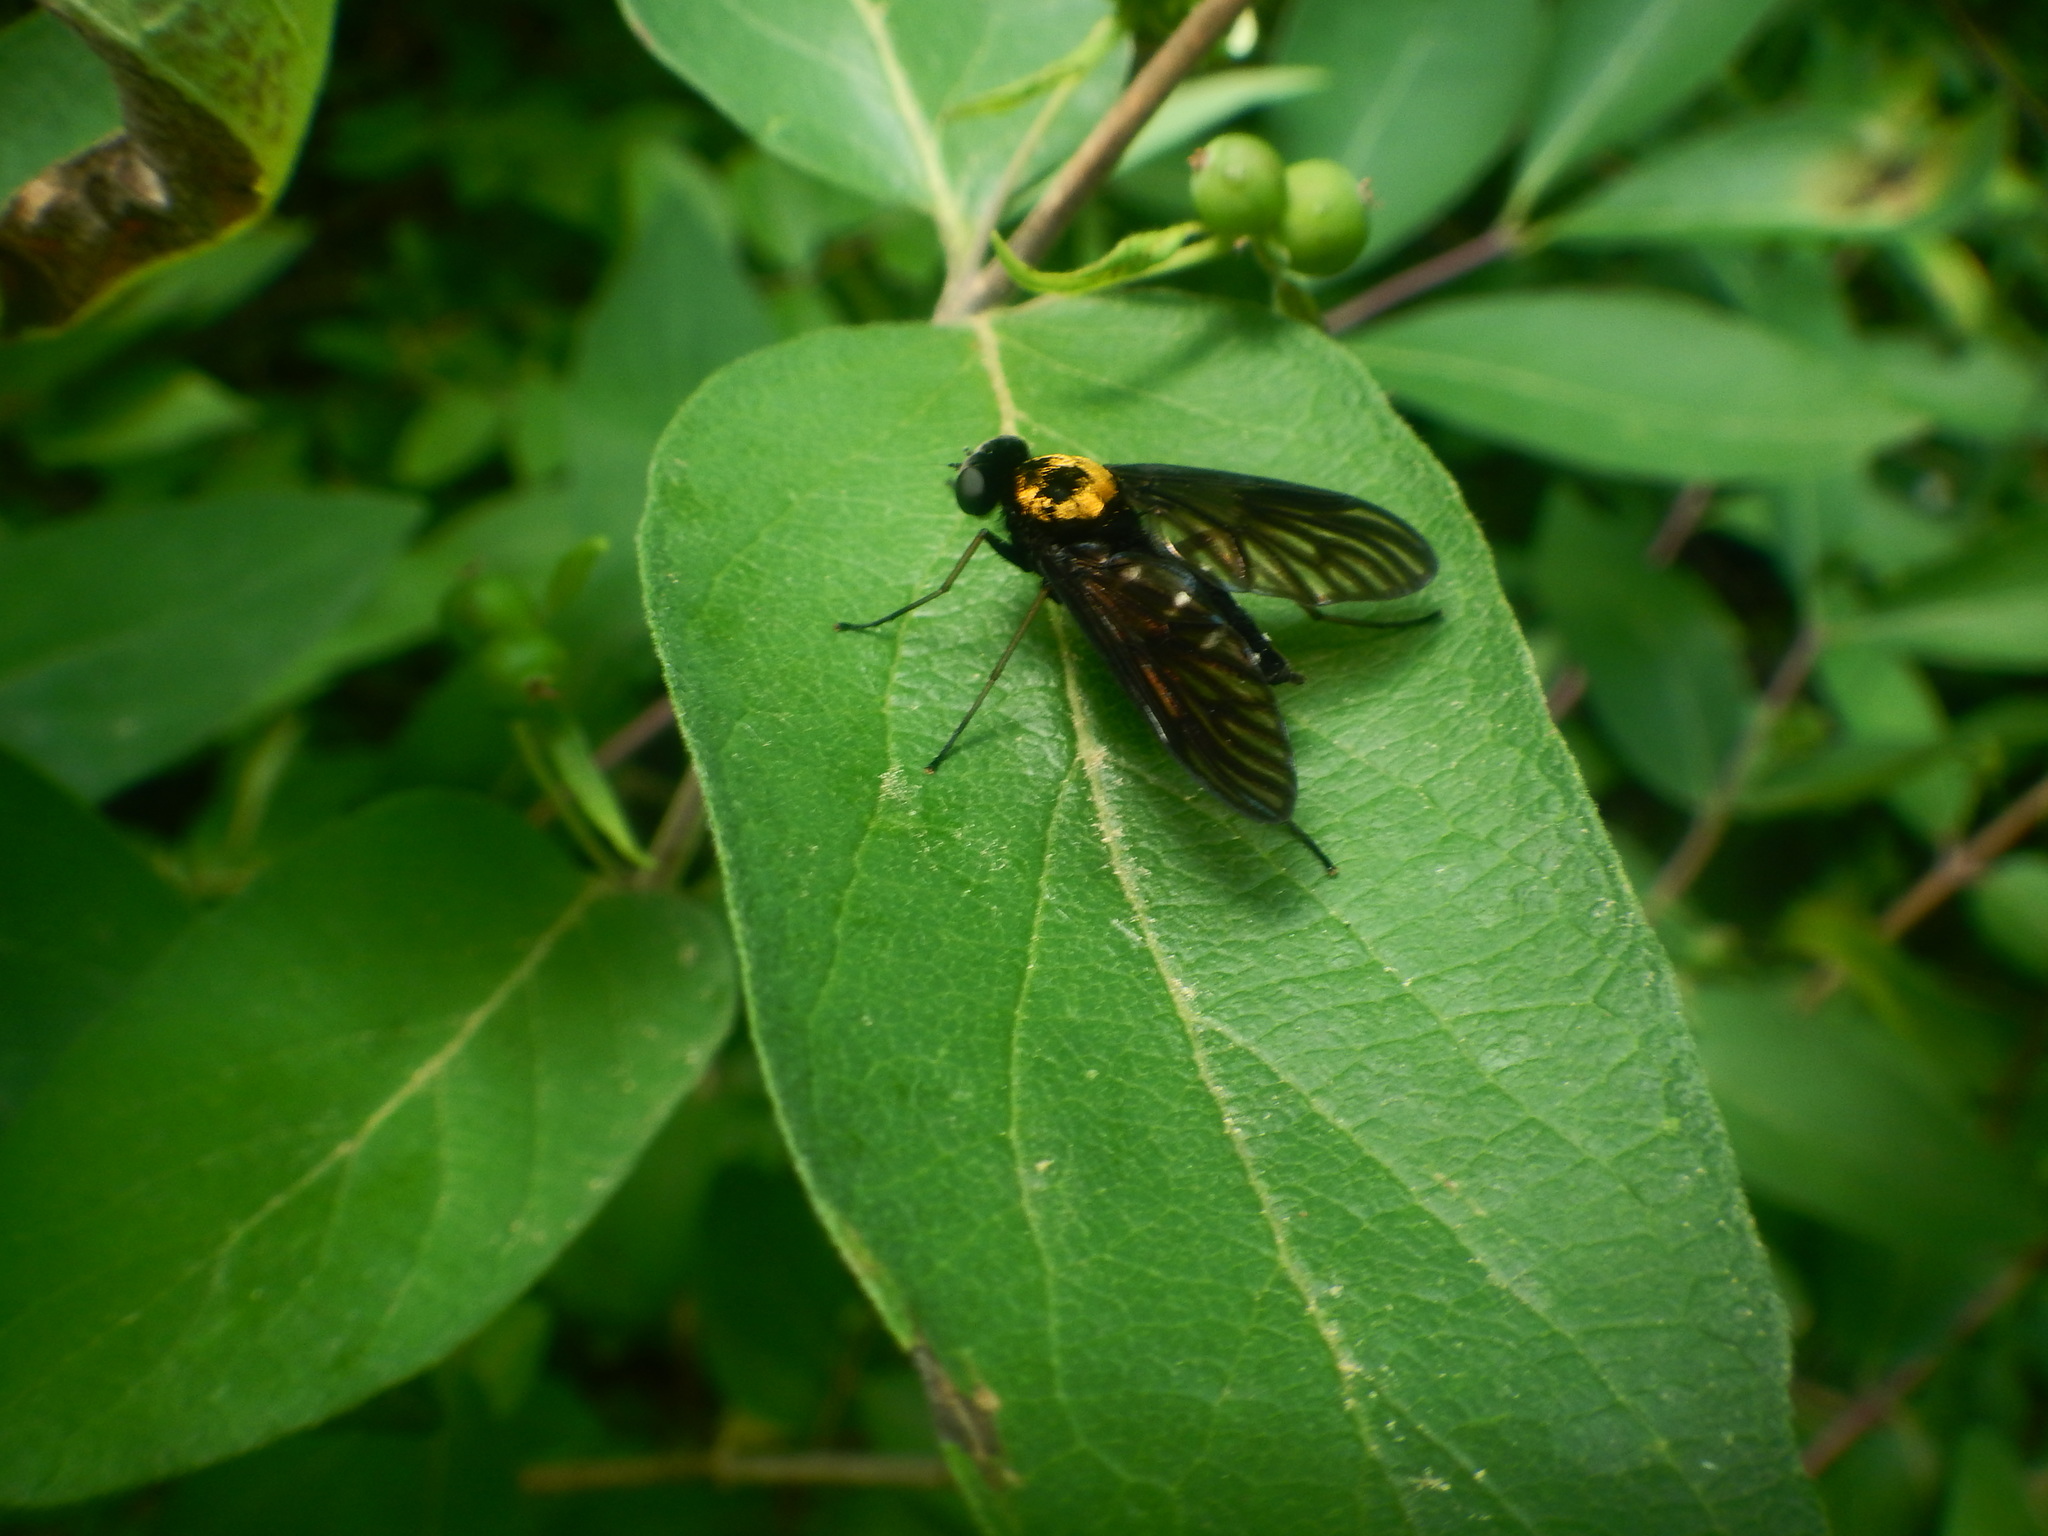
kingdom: Animalia
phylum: Arthropoda
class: Insecta
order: Diptera
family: Rhagionidae
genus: Chrysopilus
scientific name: Chrysopilus thoracicus
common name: Golden-backed snipe fly
